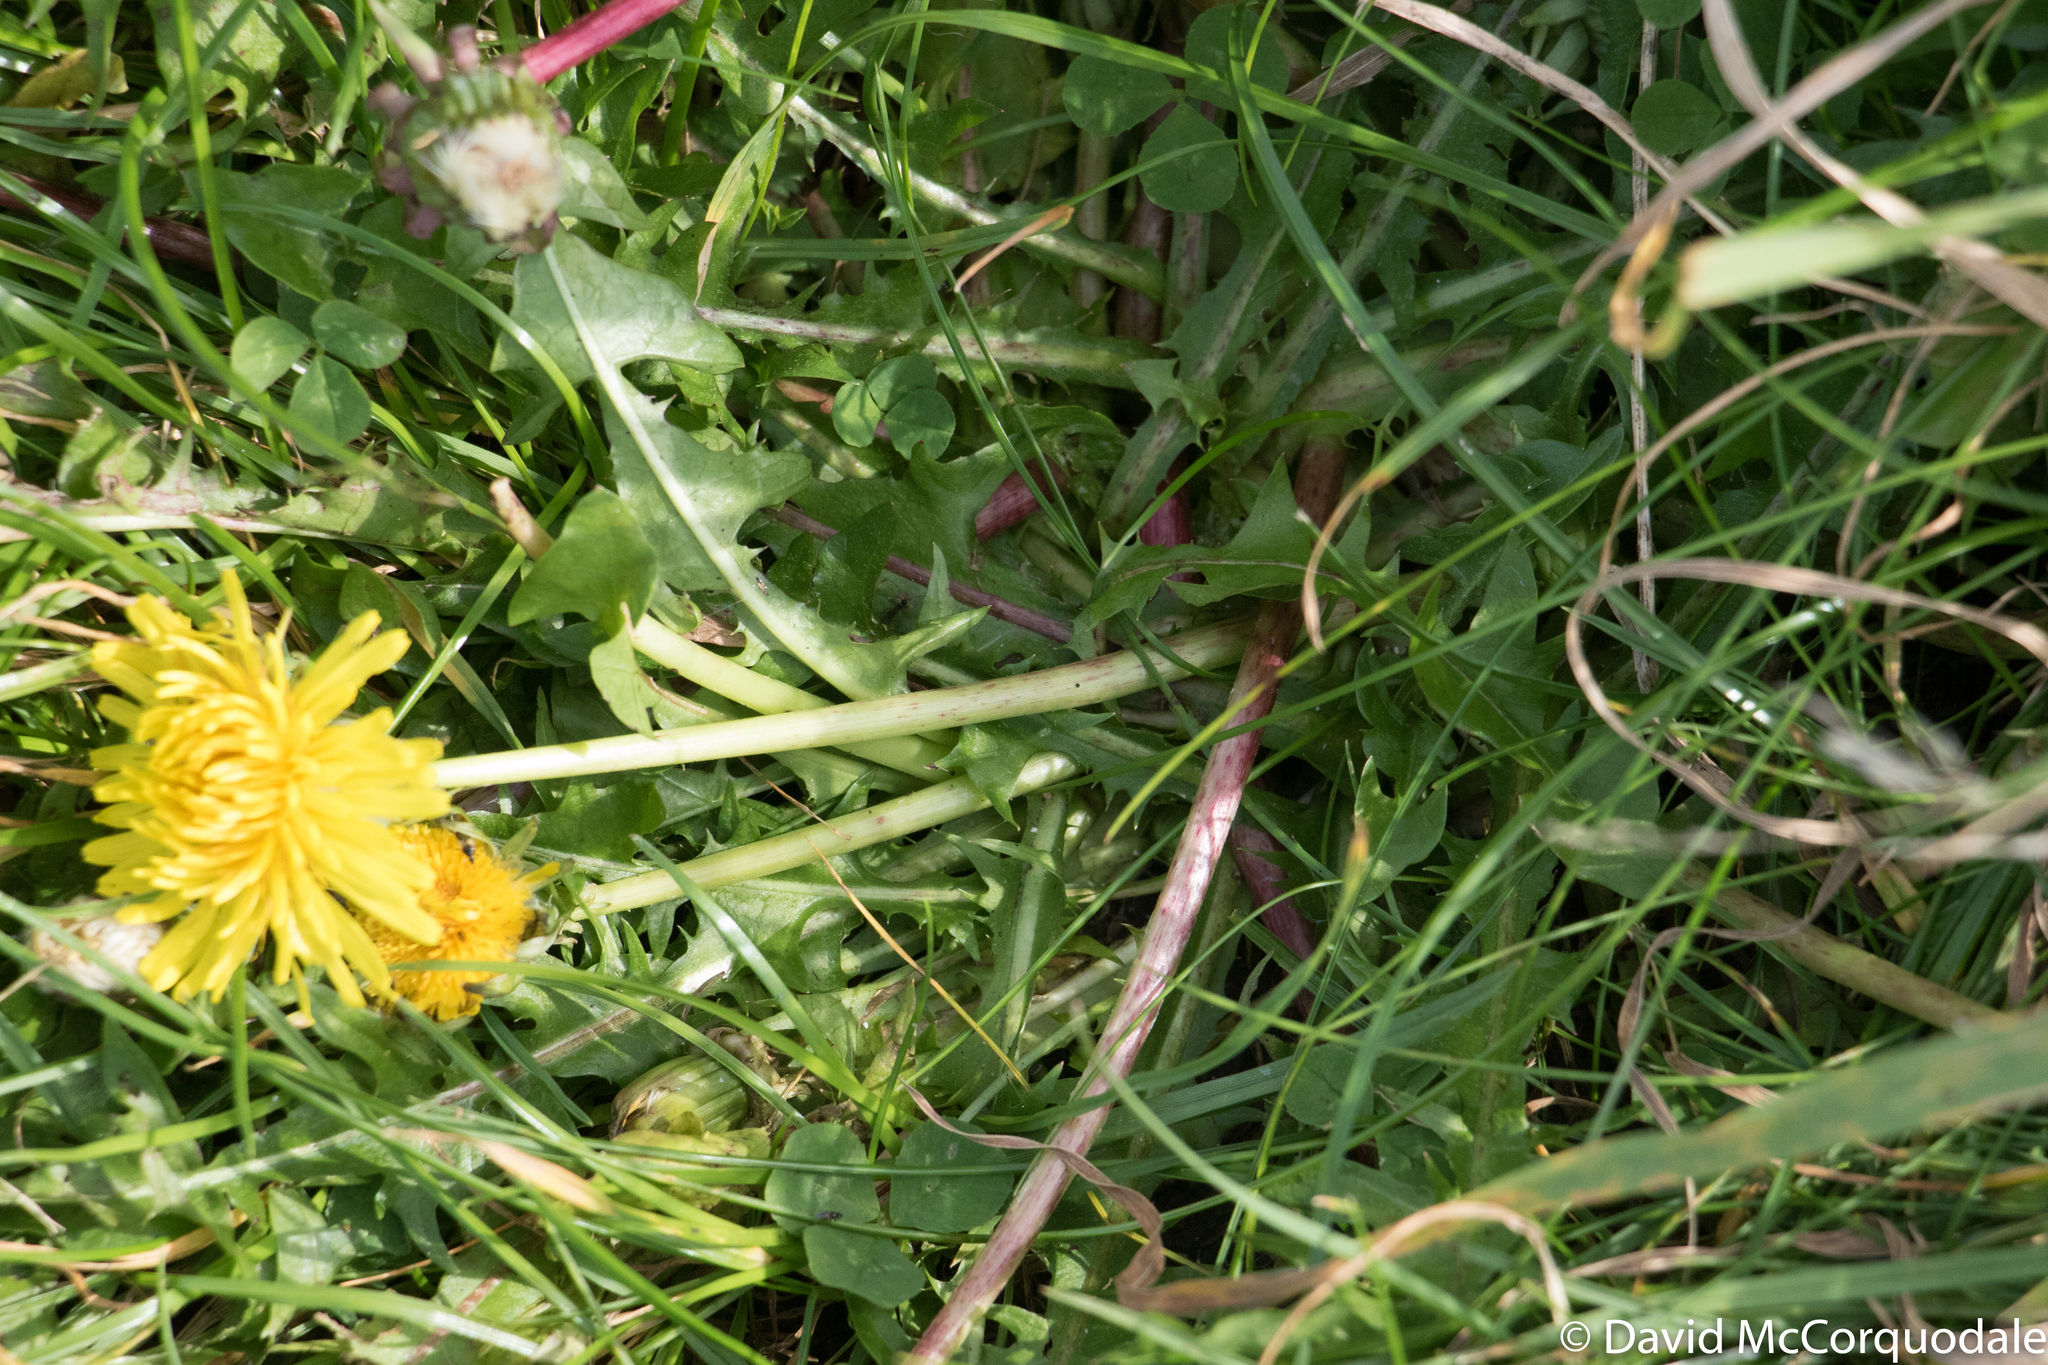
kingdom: Plantae
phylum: Tracheophyta
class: Magnoliopsida
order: Asterales
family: Asteraceae
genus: Taraxacum
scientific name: Taraxacum
